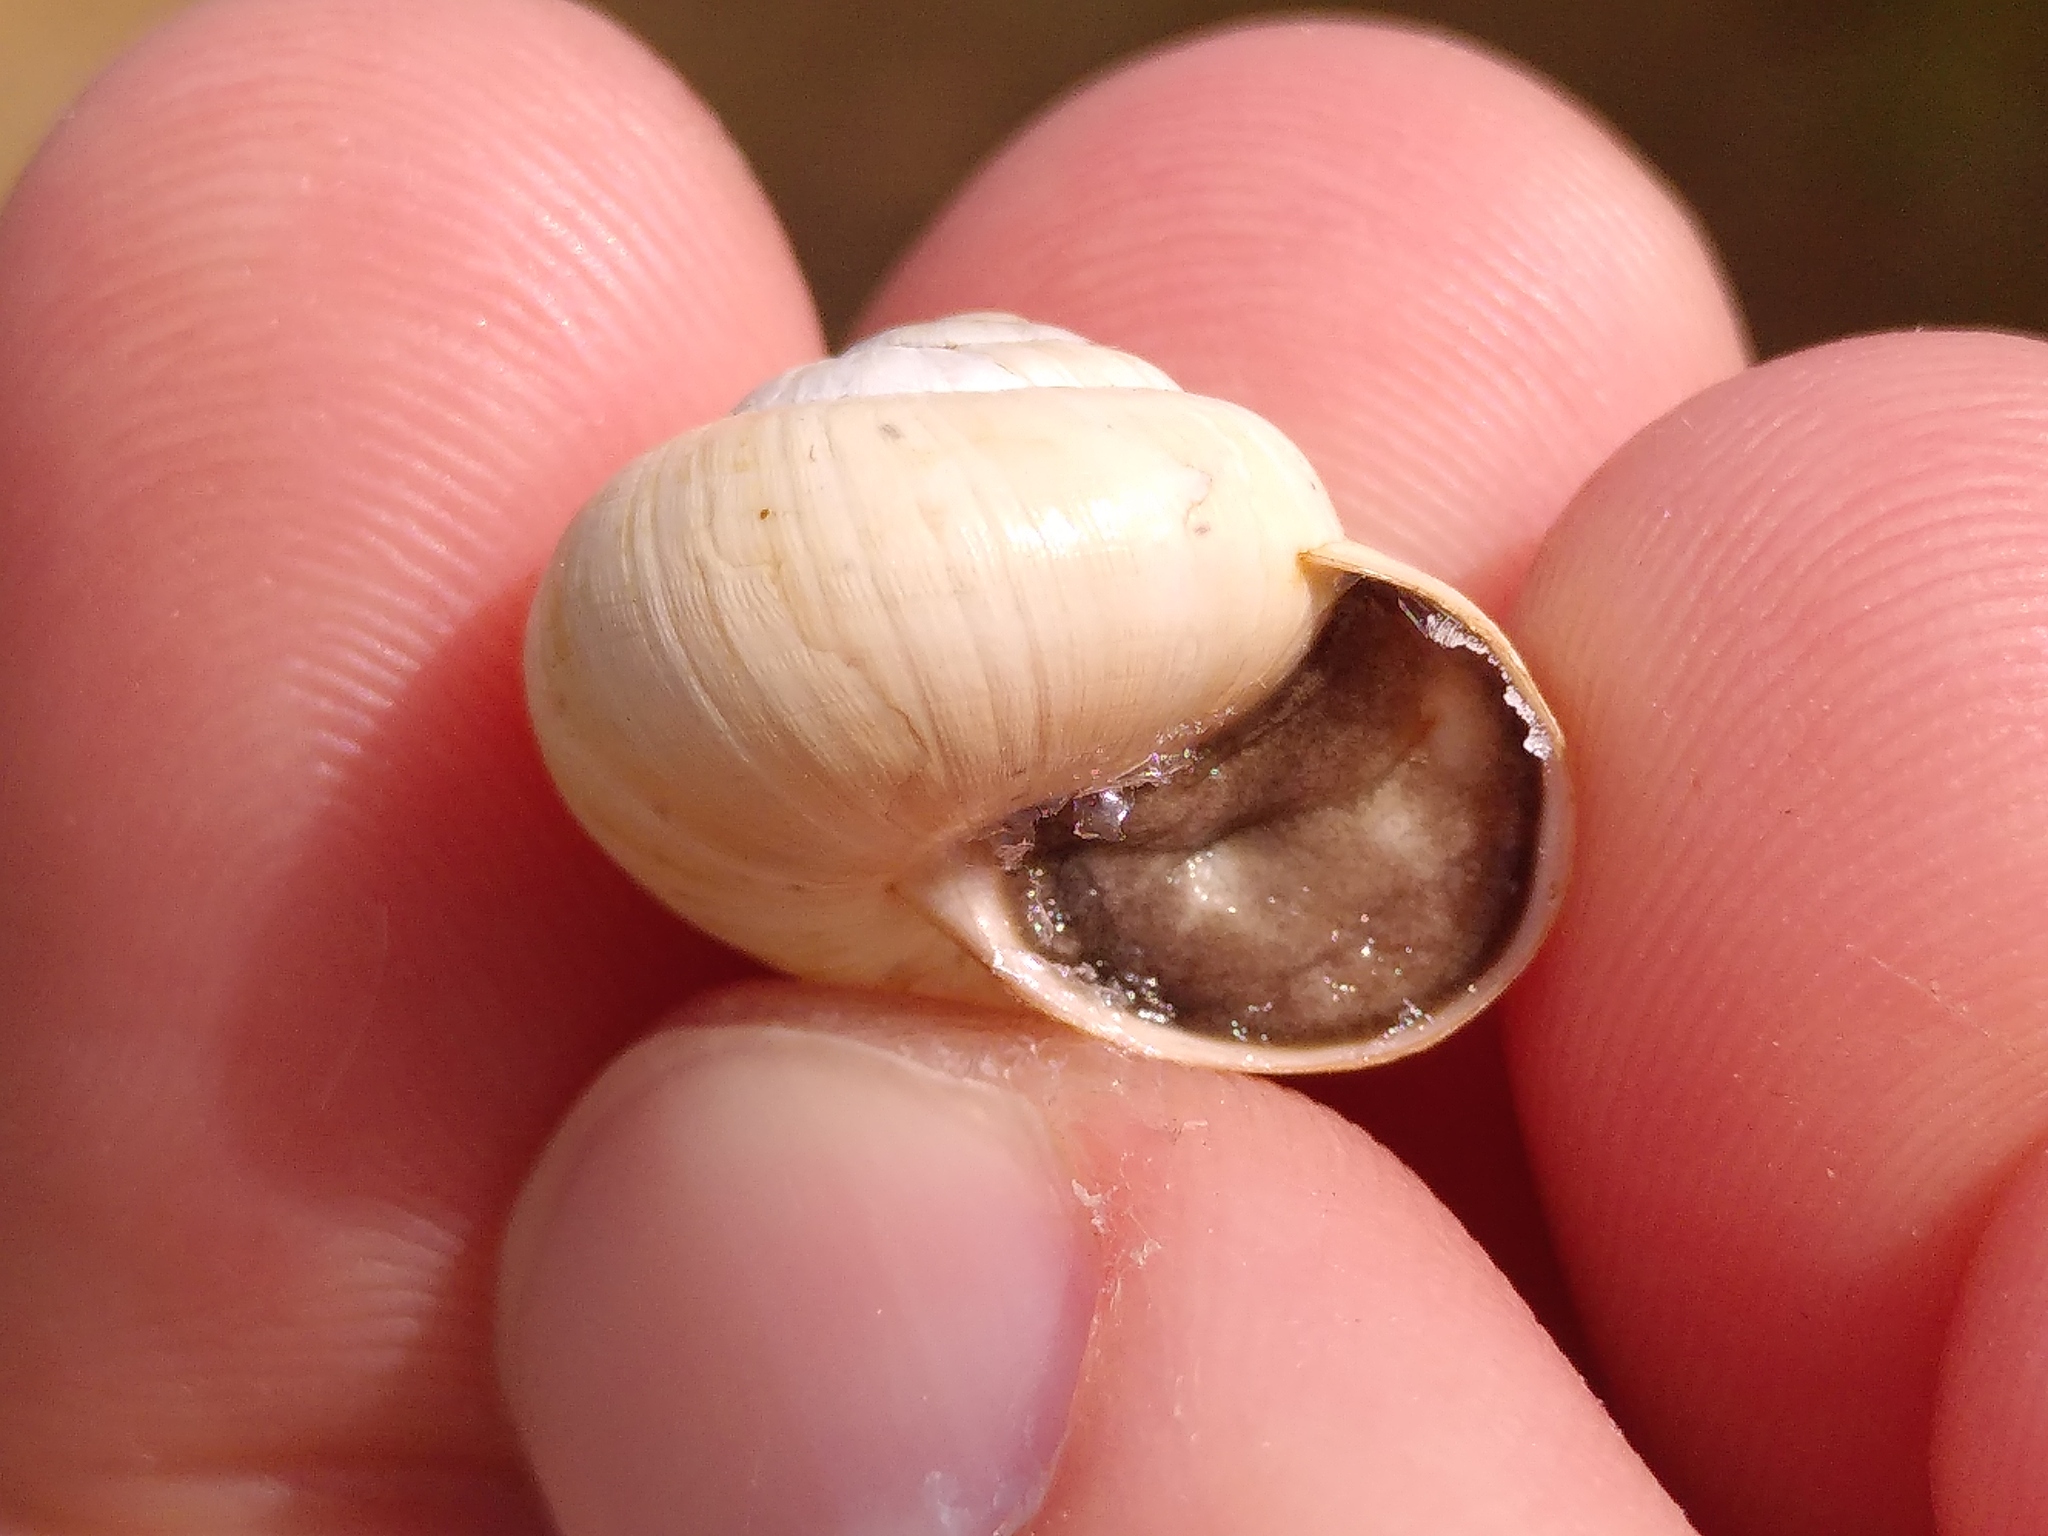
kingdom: Animalia
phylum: Mollusca
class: Gastropoda
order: Stylommatophora
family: Helicidae
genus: Theba
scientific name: Theba pisana
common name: White snail
